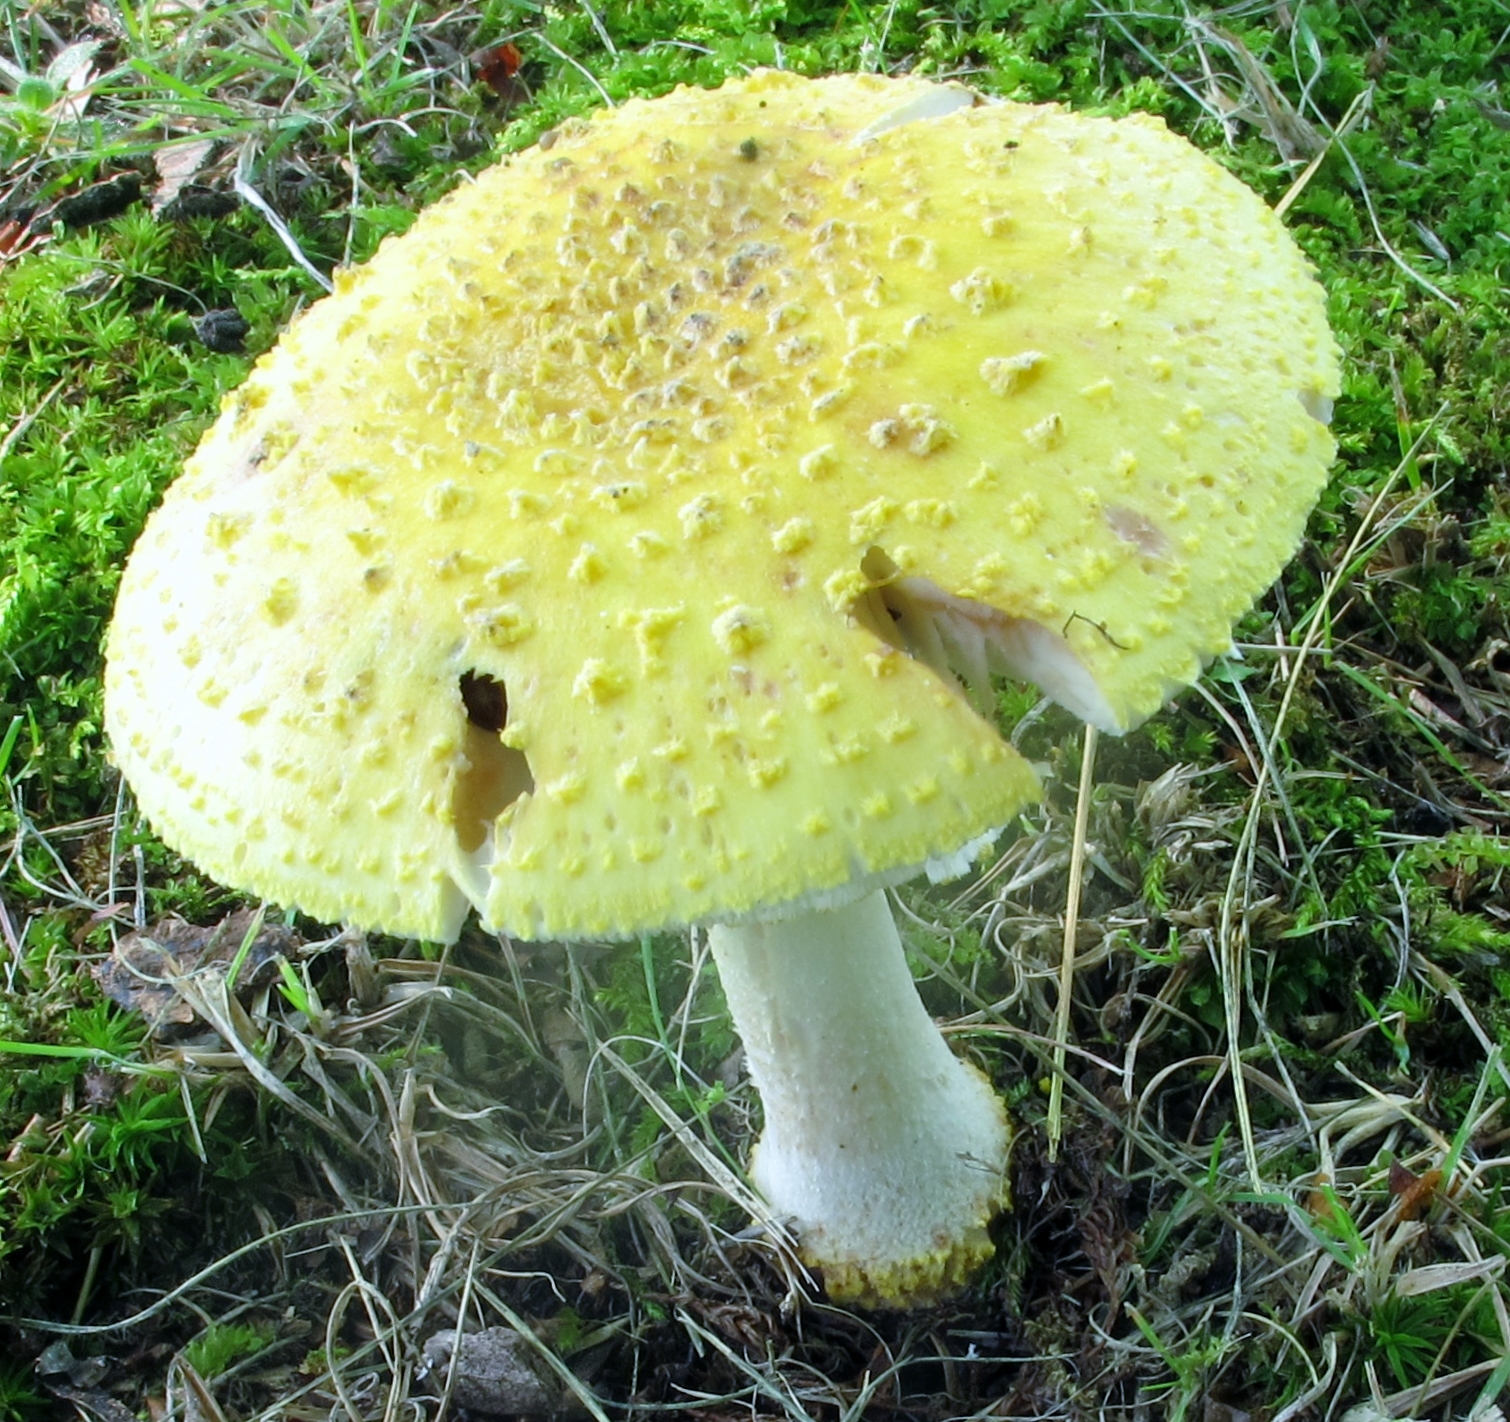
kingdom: Fungi
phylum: Basidiomycota
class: Agaricomycetes
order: Agaricales
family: Amanitaceae
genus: Amanita
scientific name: Amanita flavorubens
